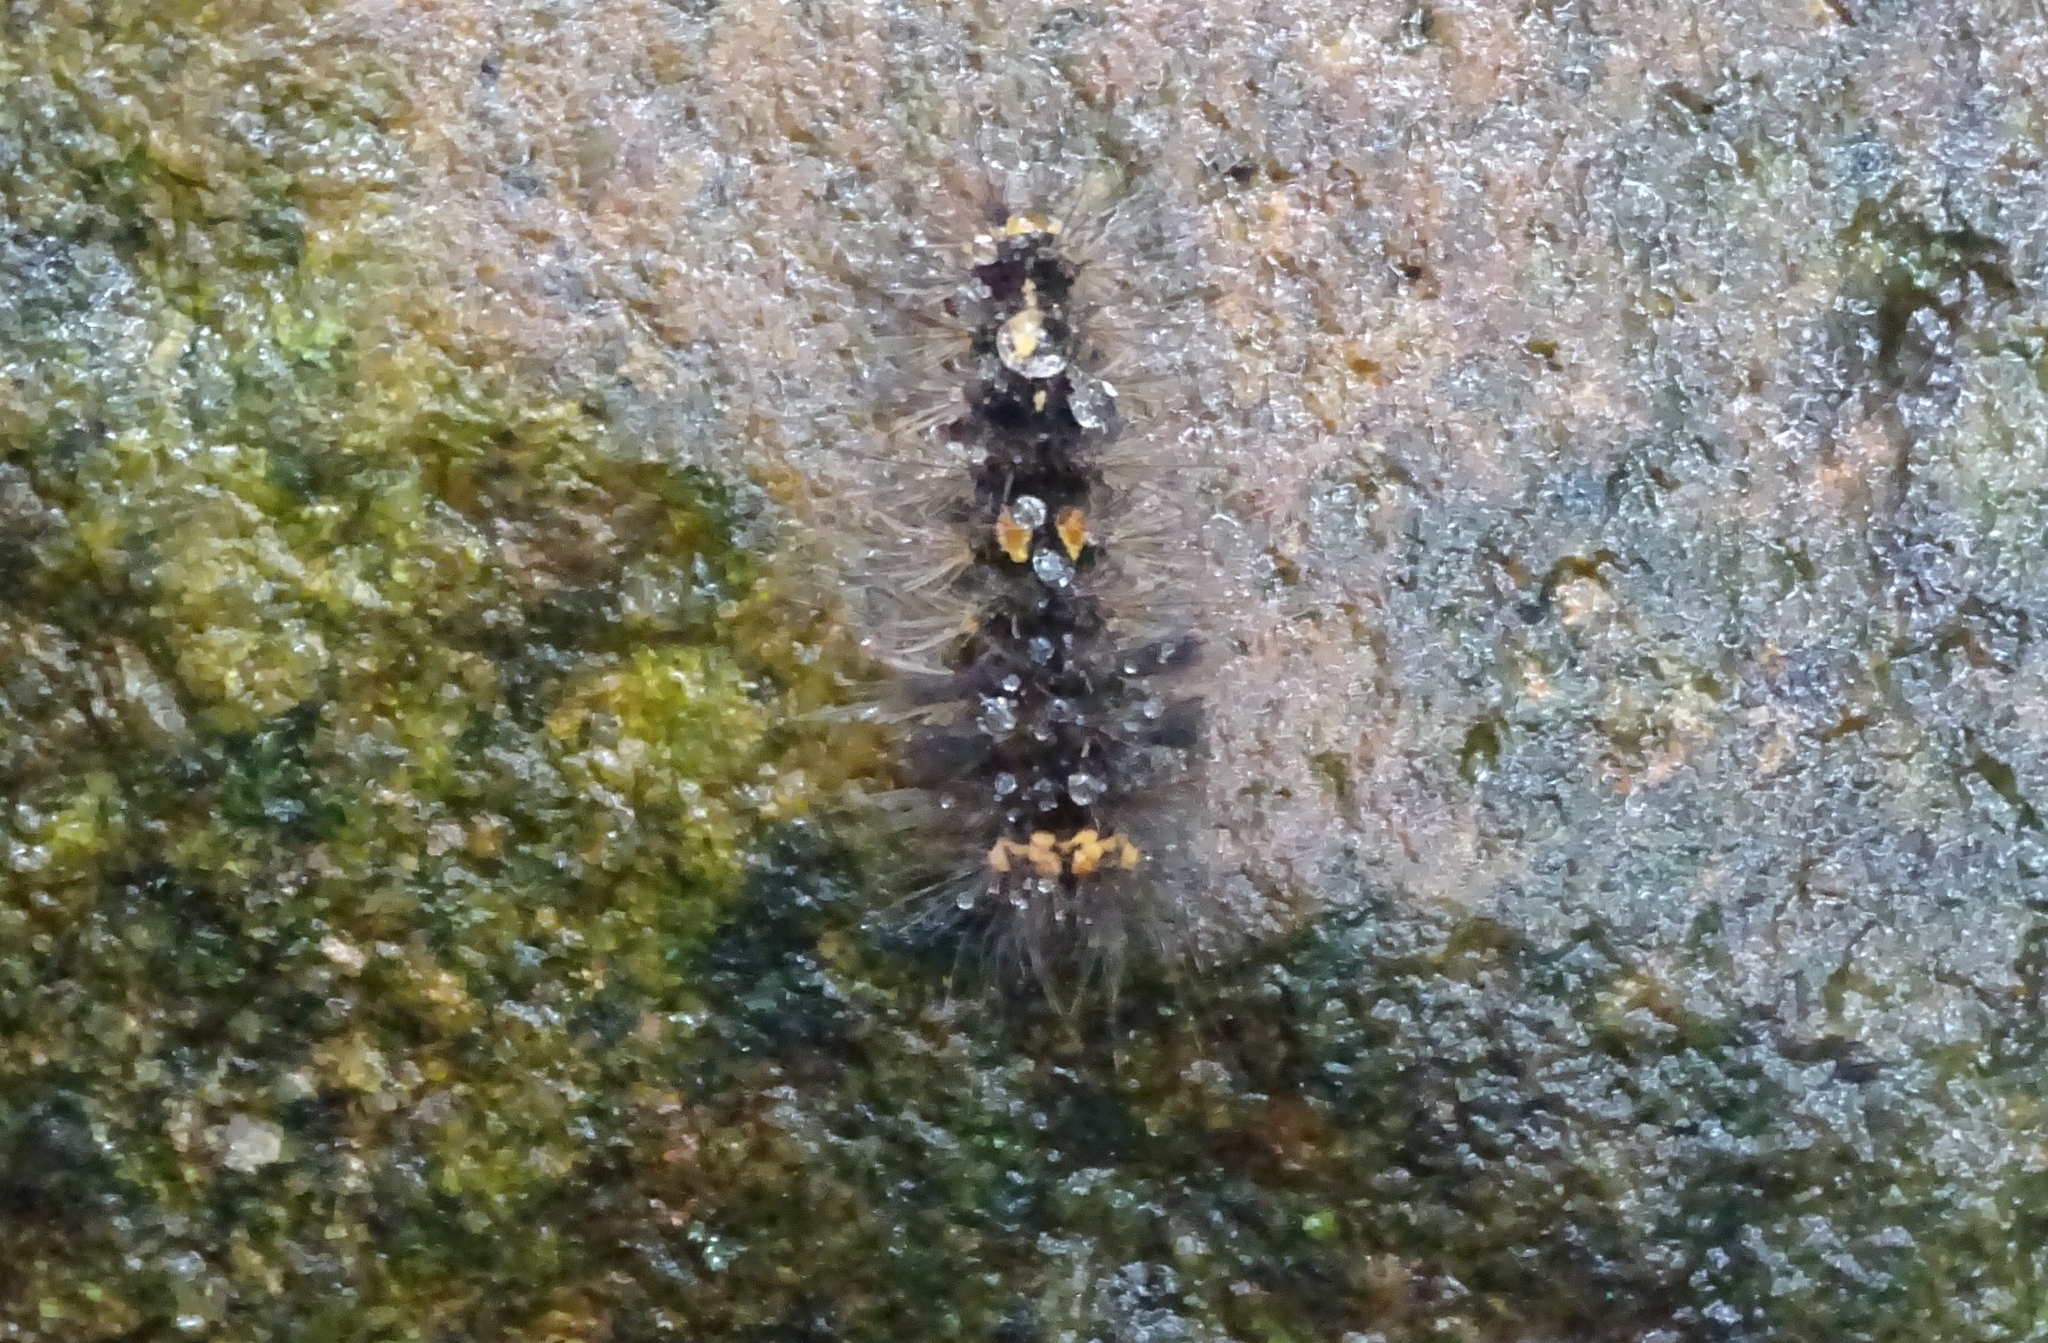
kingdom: Animalia
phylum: Arthropoda
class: Insecta
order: Lepidoptera
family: Erebidae
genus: Nepita
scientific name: Nepita conferta
